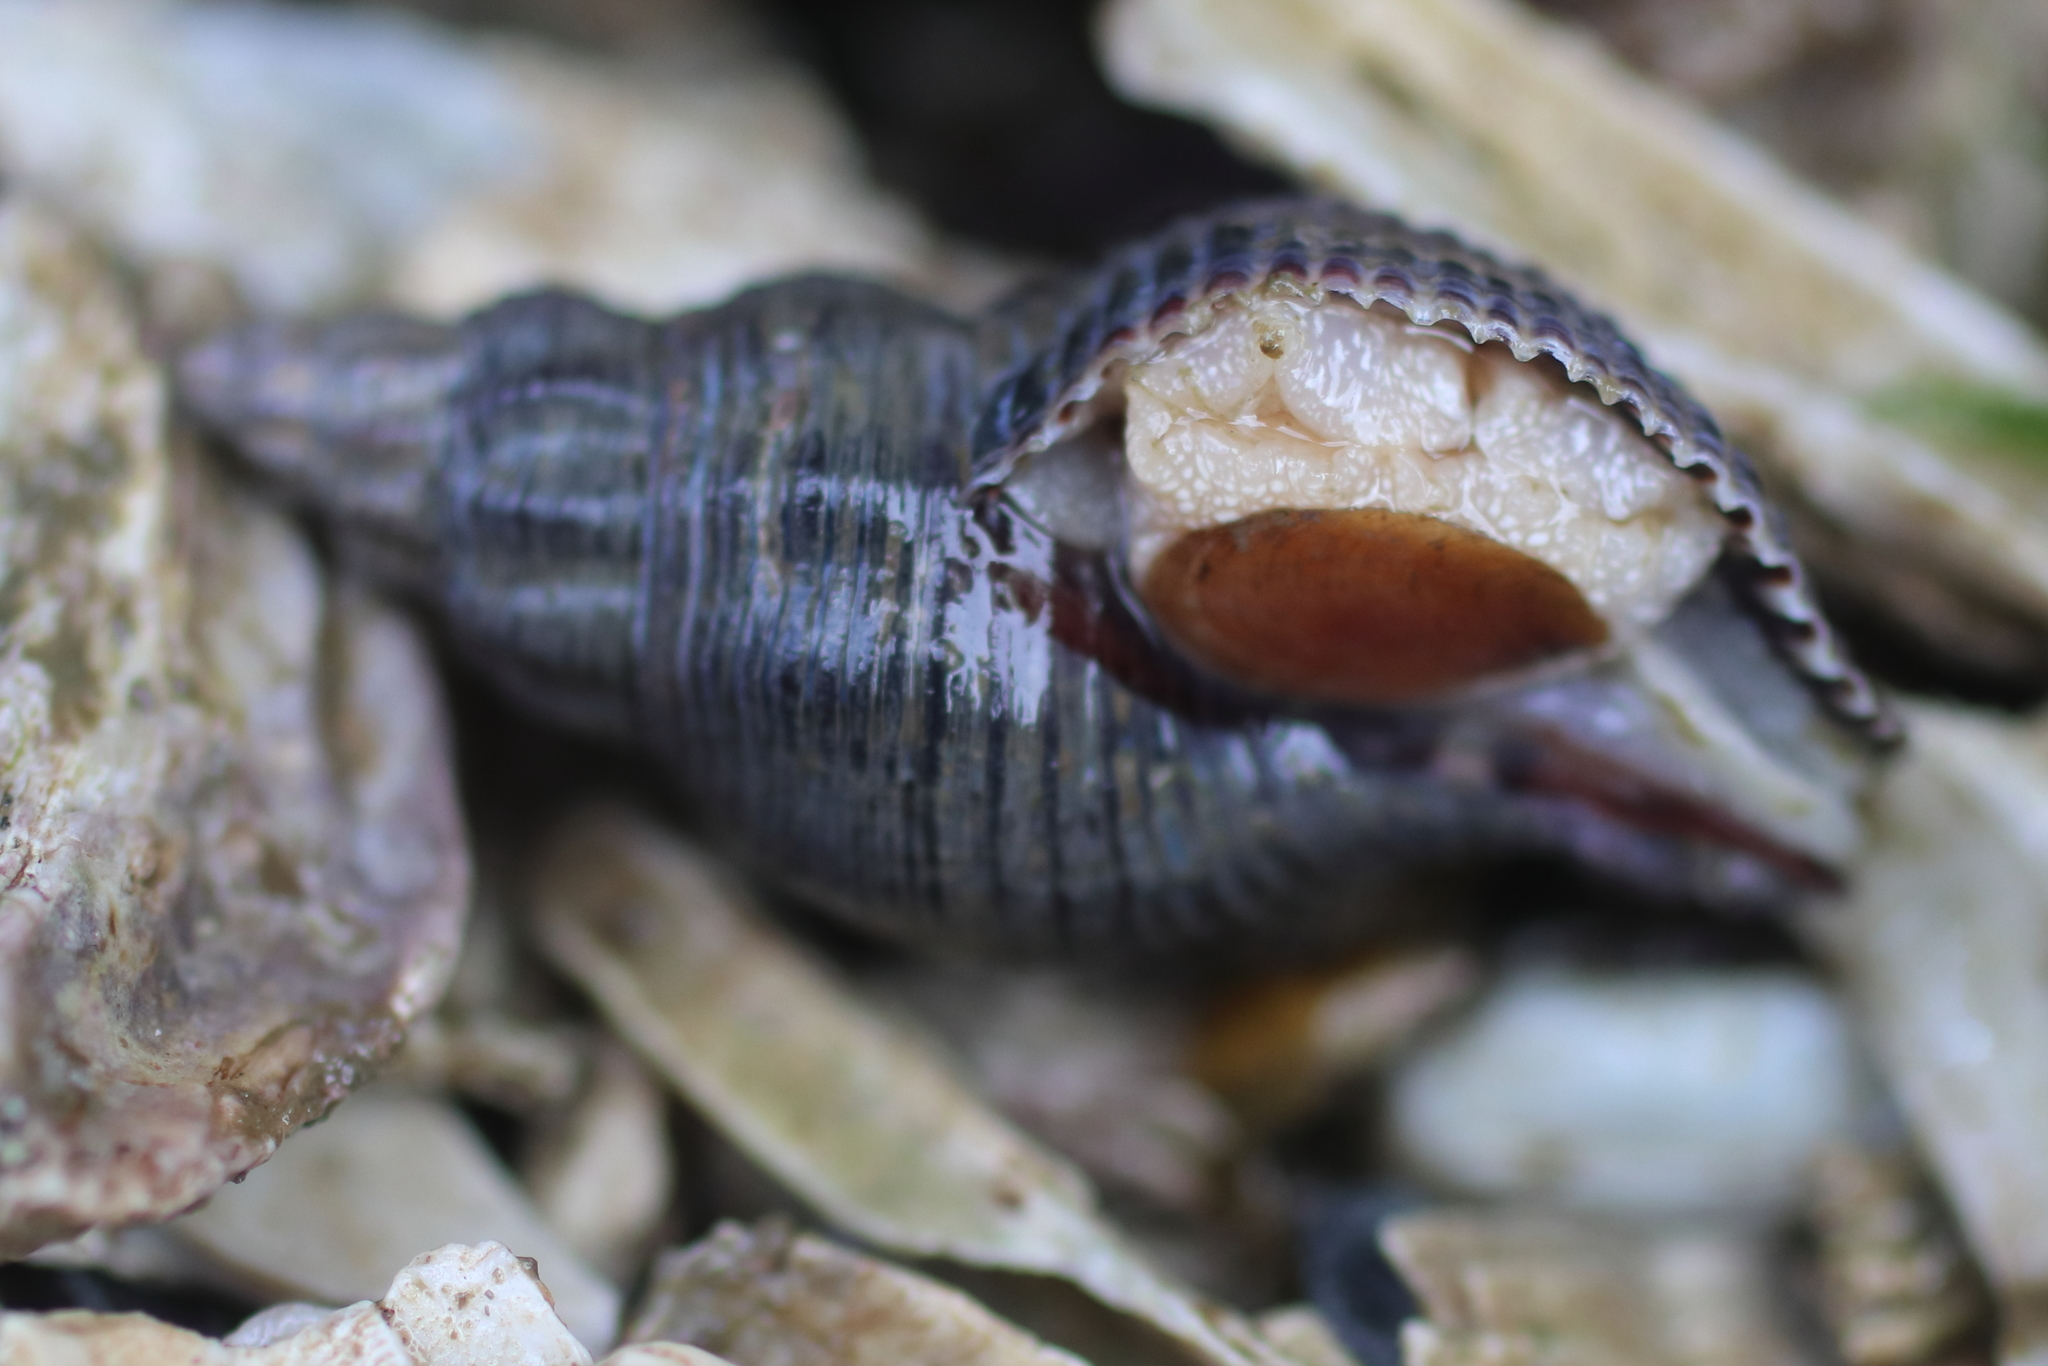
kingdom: Animalia
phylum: Mollusca
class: Gastropoda
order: Neogastropoda
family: Tudiclidae
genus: Lirabuccinum
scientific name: Lirabuccinum dirum
